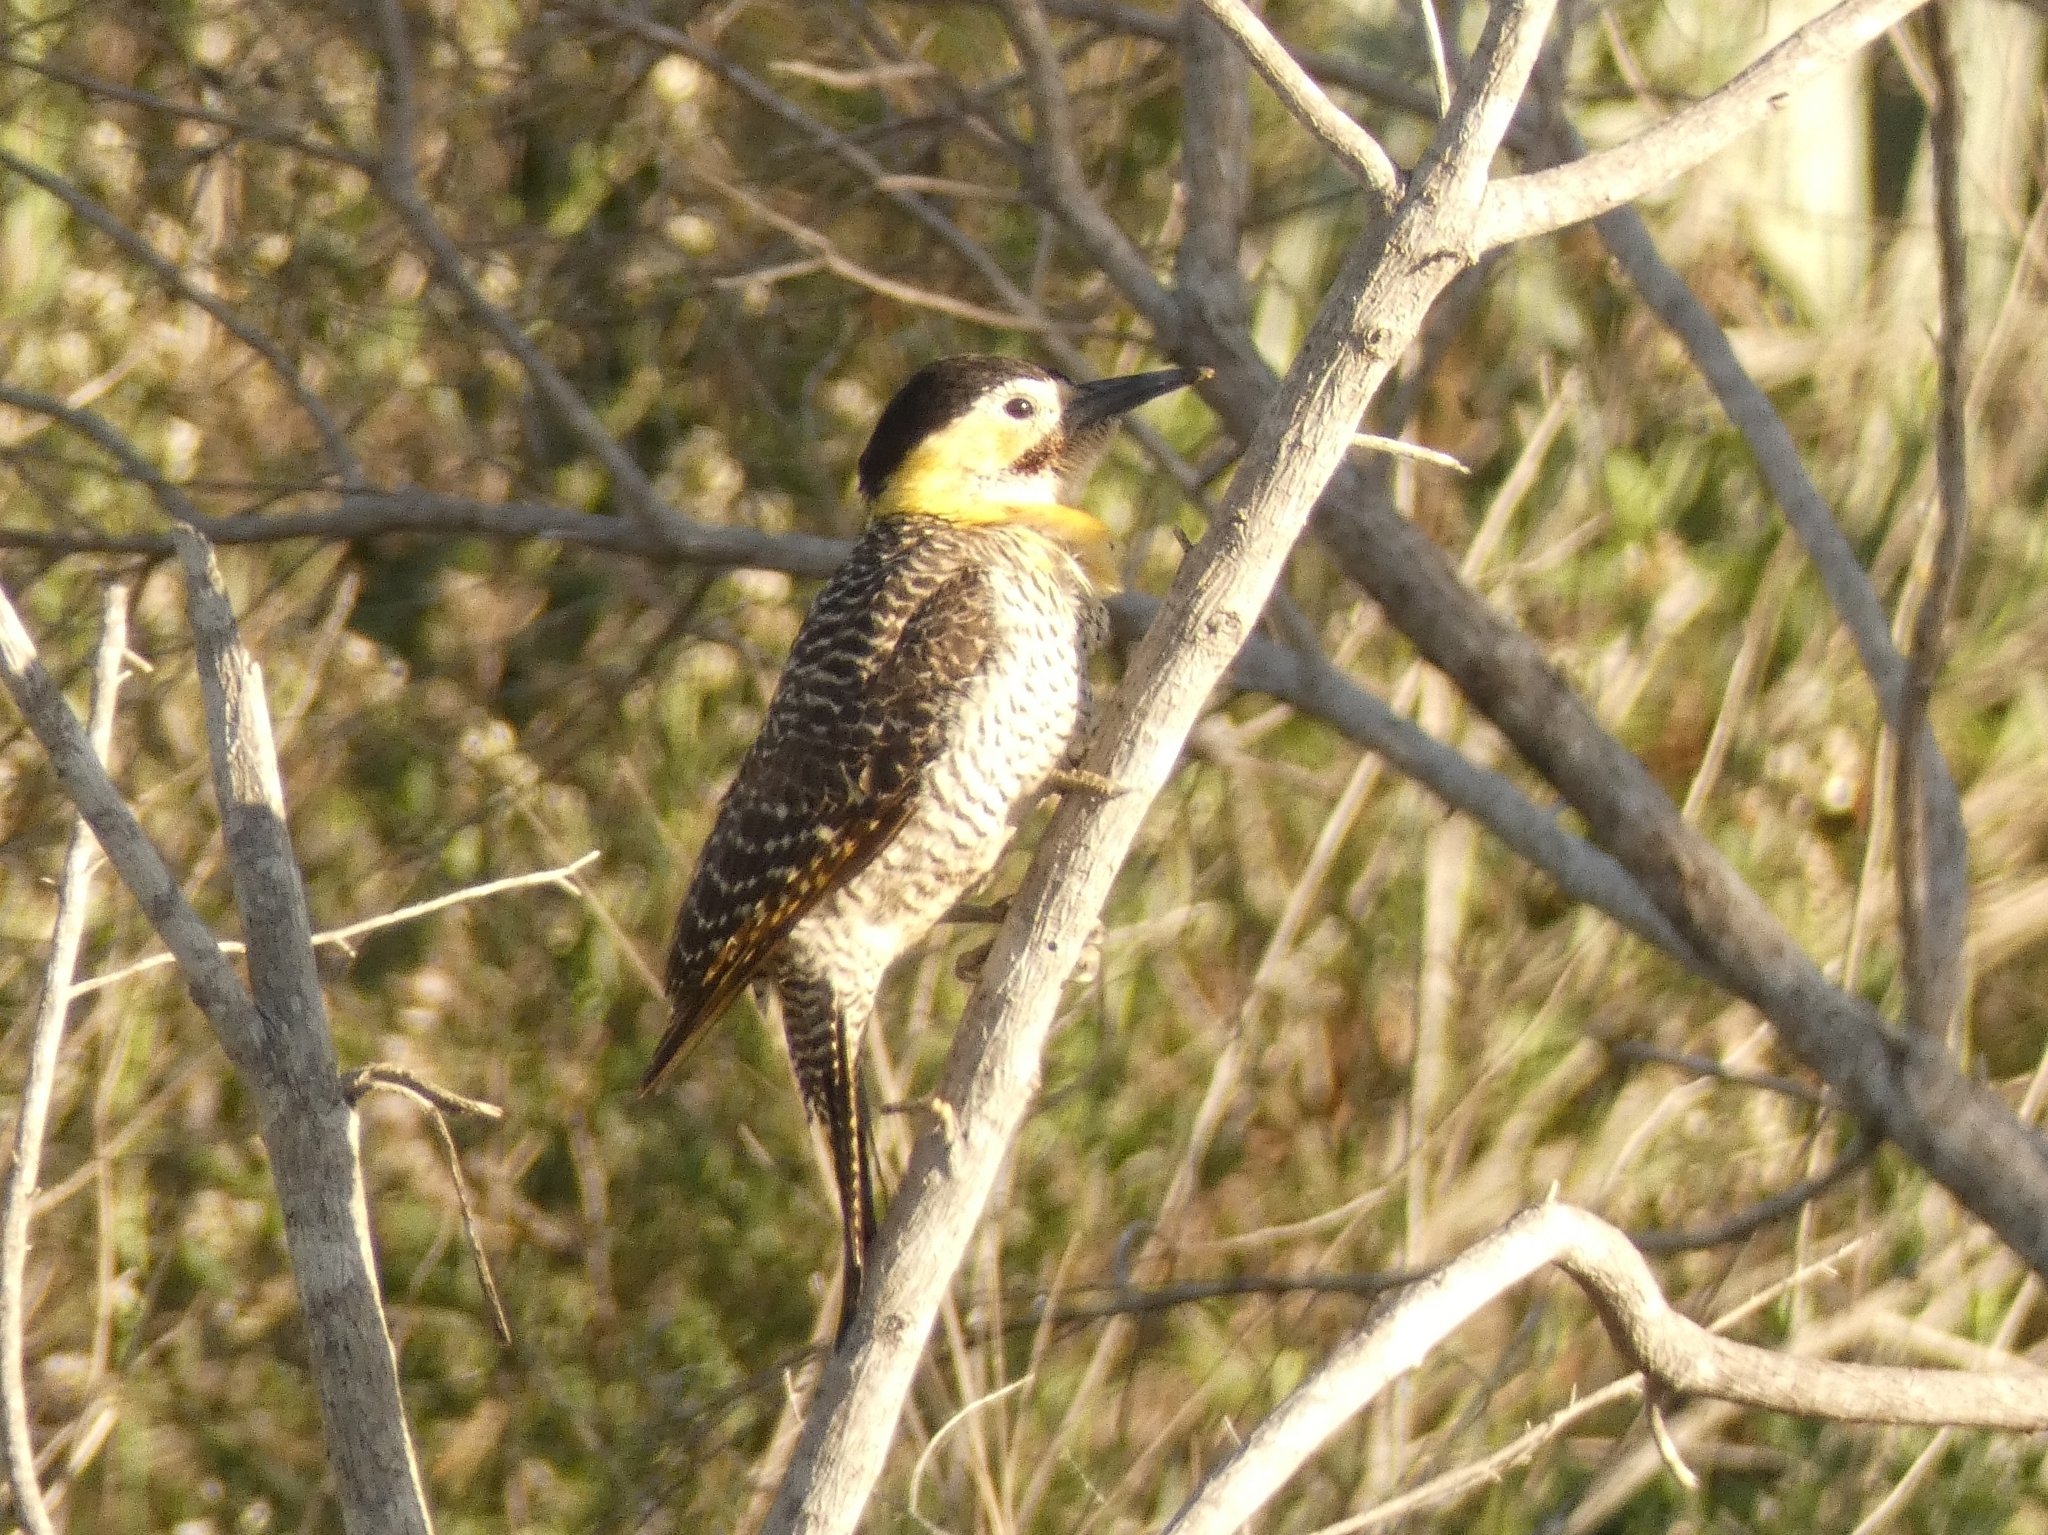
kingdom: Animalia
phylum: Chordata
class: Aves
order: Piciformes
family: Picidae
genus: Colaptes
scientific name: Colaptes campestris
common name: Campo flicker
